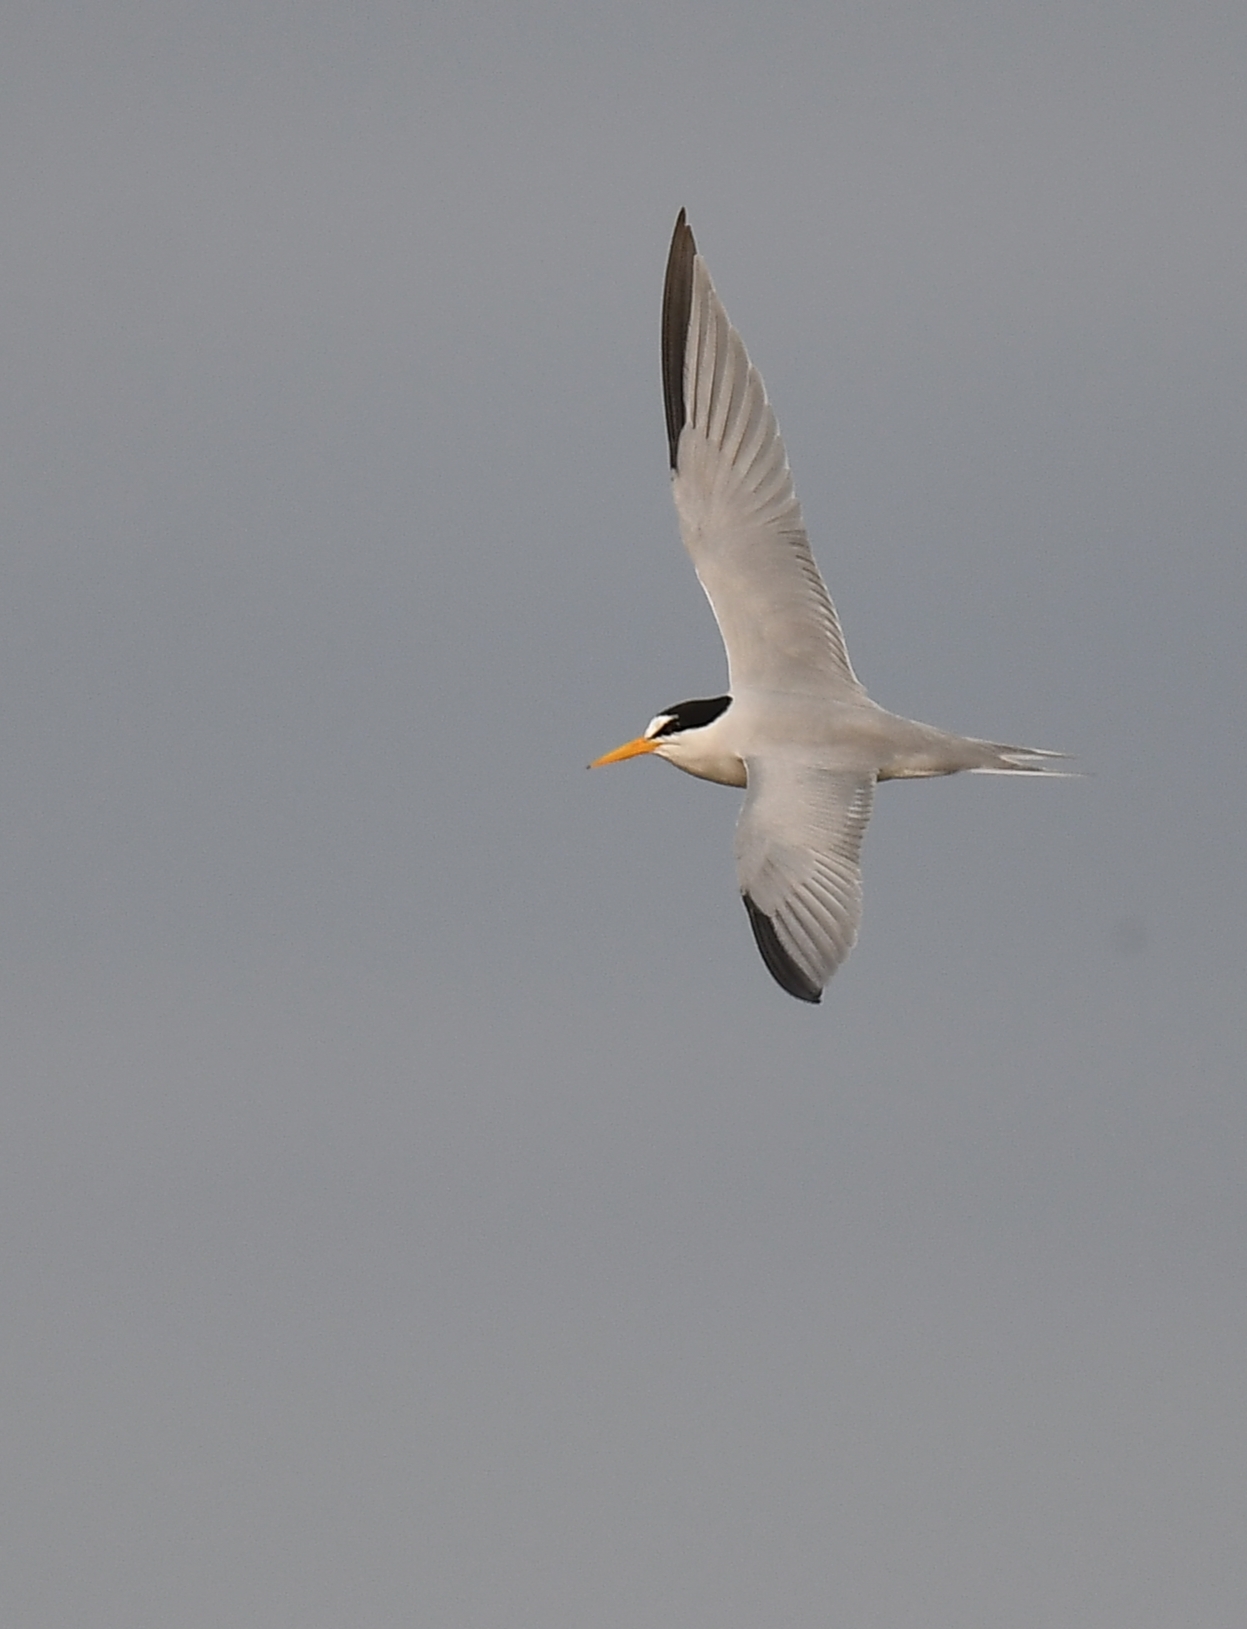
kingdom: Animalia
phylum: Chordata
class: Aves
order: Charadriiformes
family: Laridae
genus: Sternula
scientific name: Sternula antillarum
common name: Least tern
